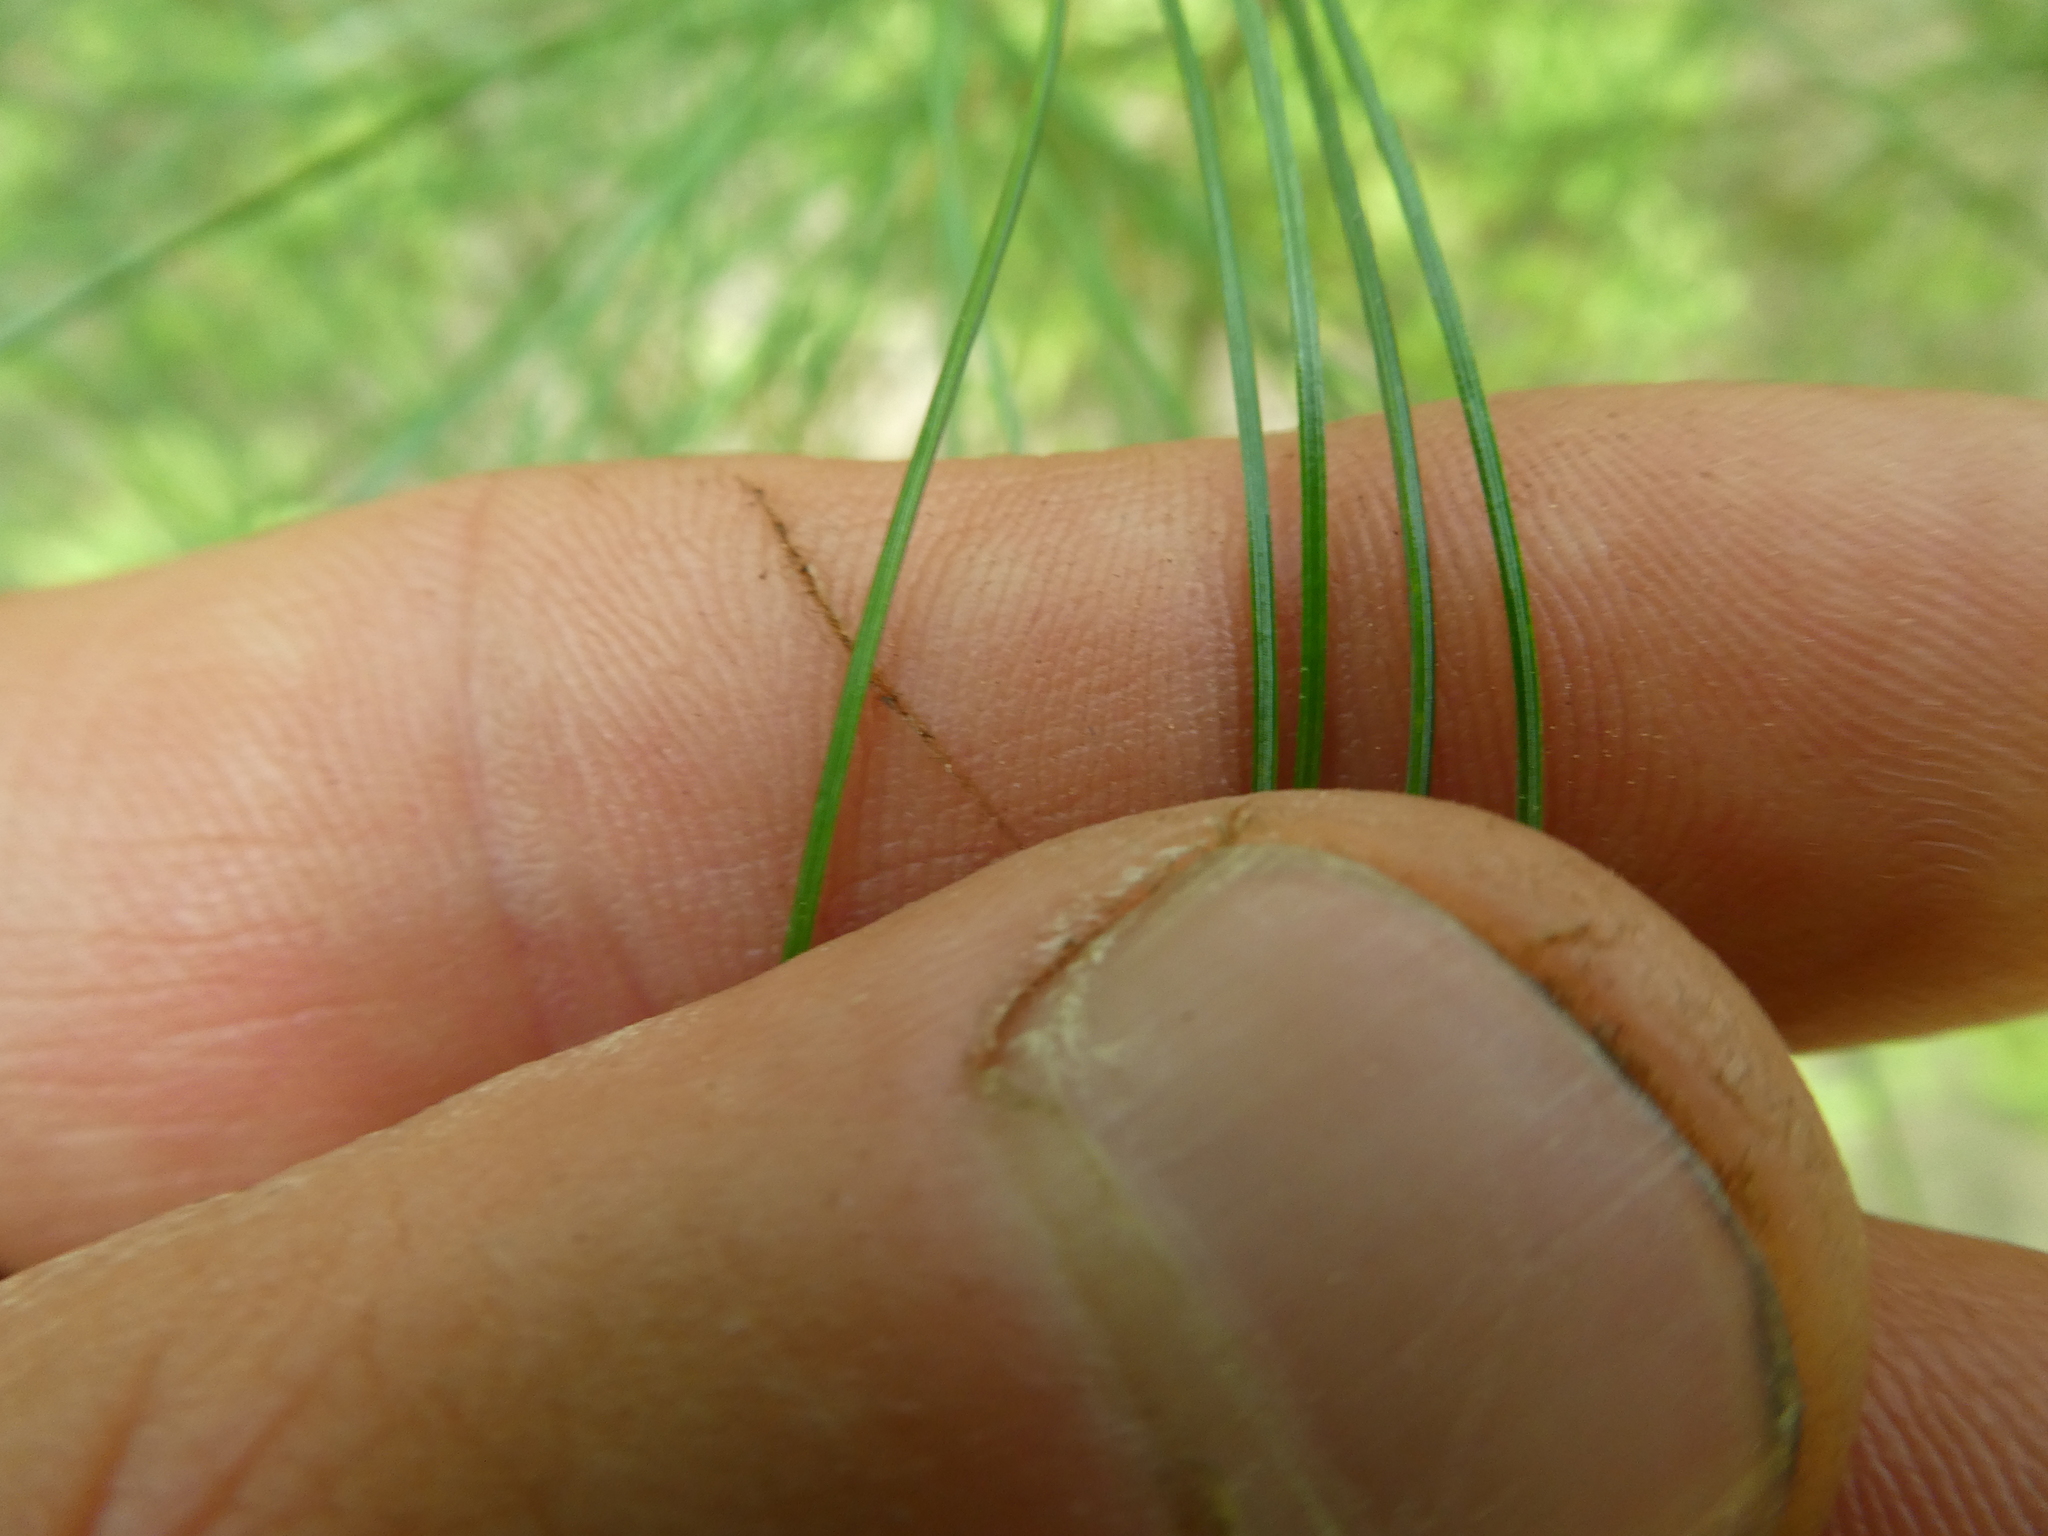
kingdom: Plantae
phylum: Tracheophyta
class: Pinopsida
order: Pinales
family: Pinaceae
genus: Pinus
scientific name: Pinus strobus
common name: Weymouth pine
